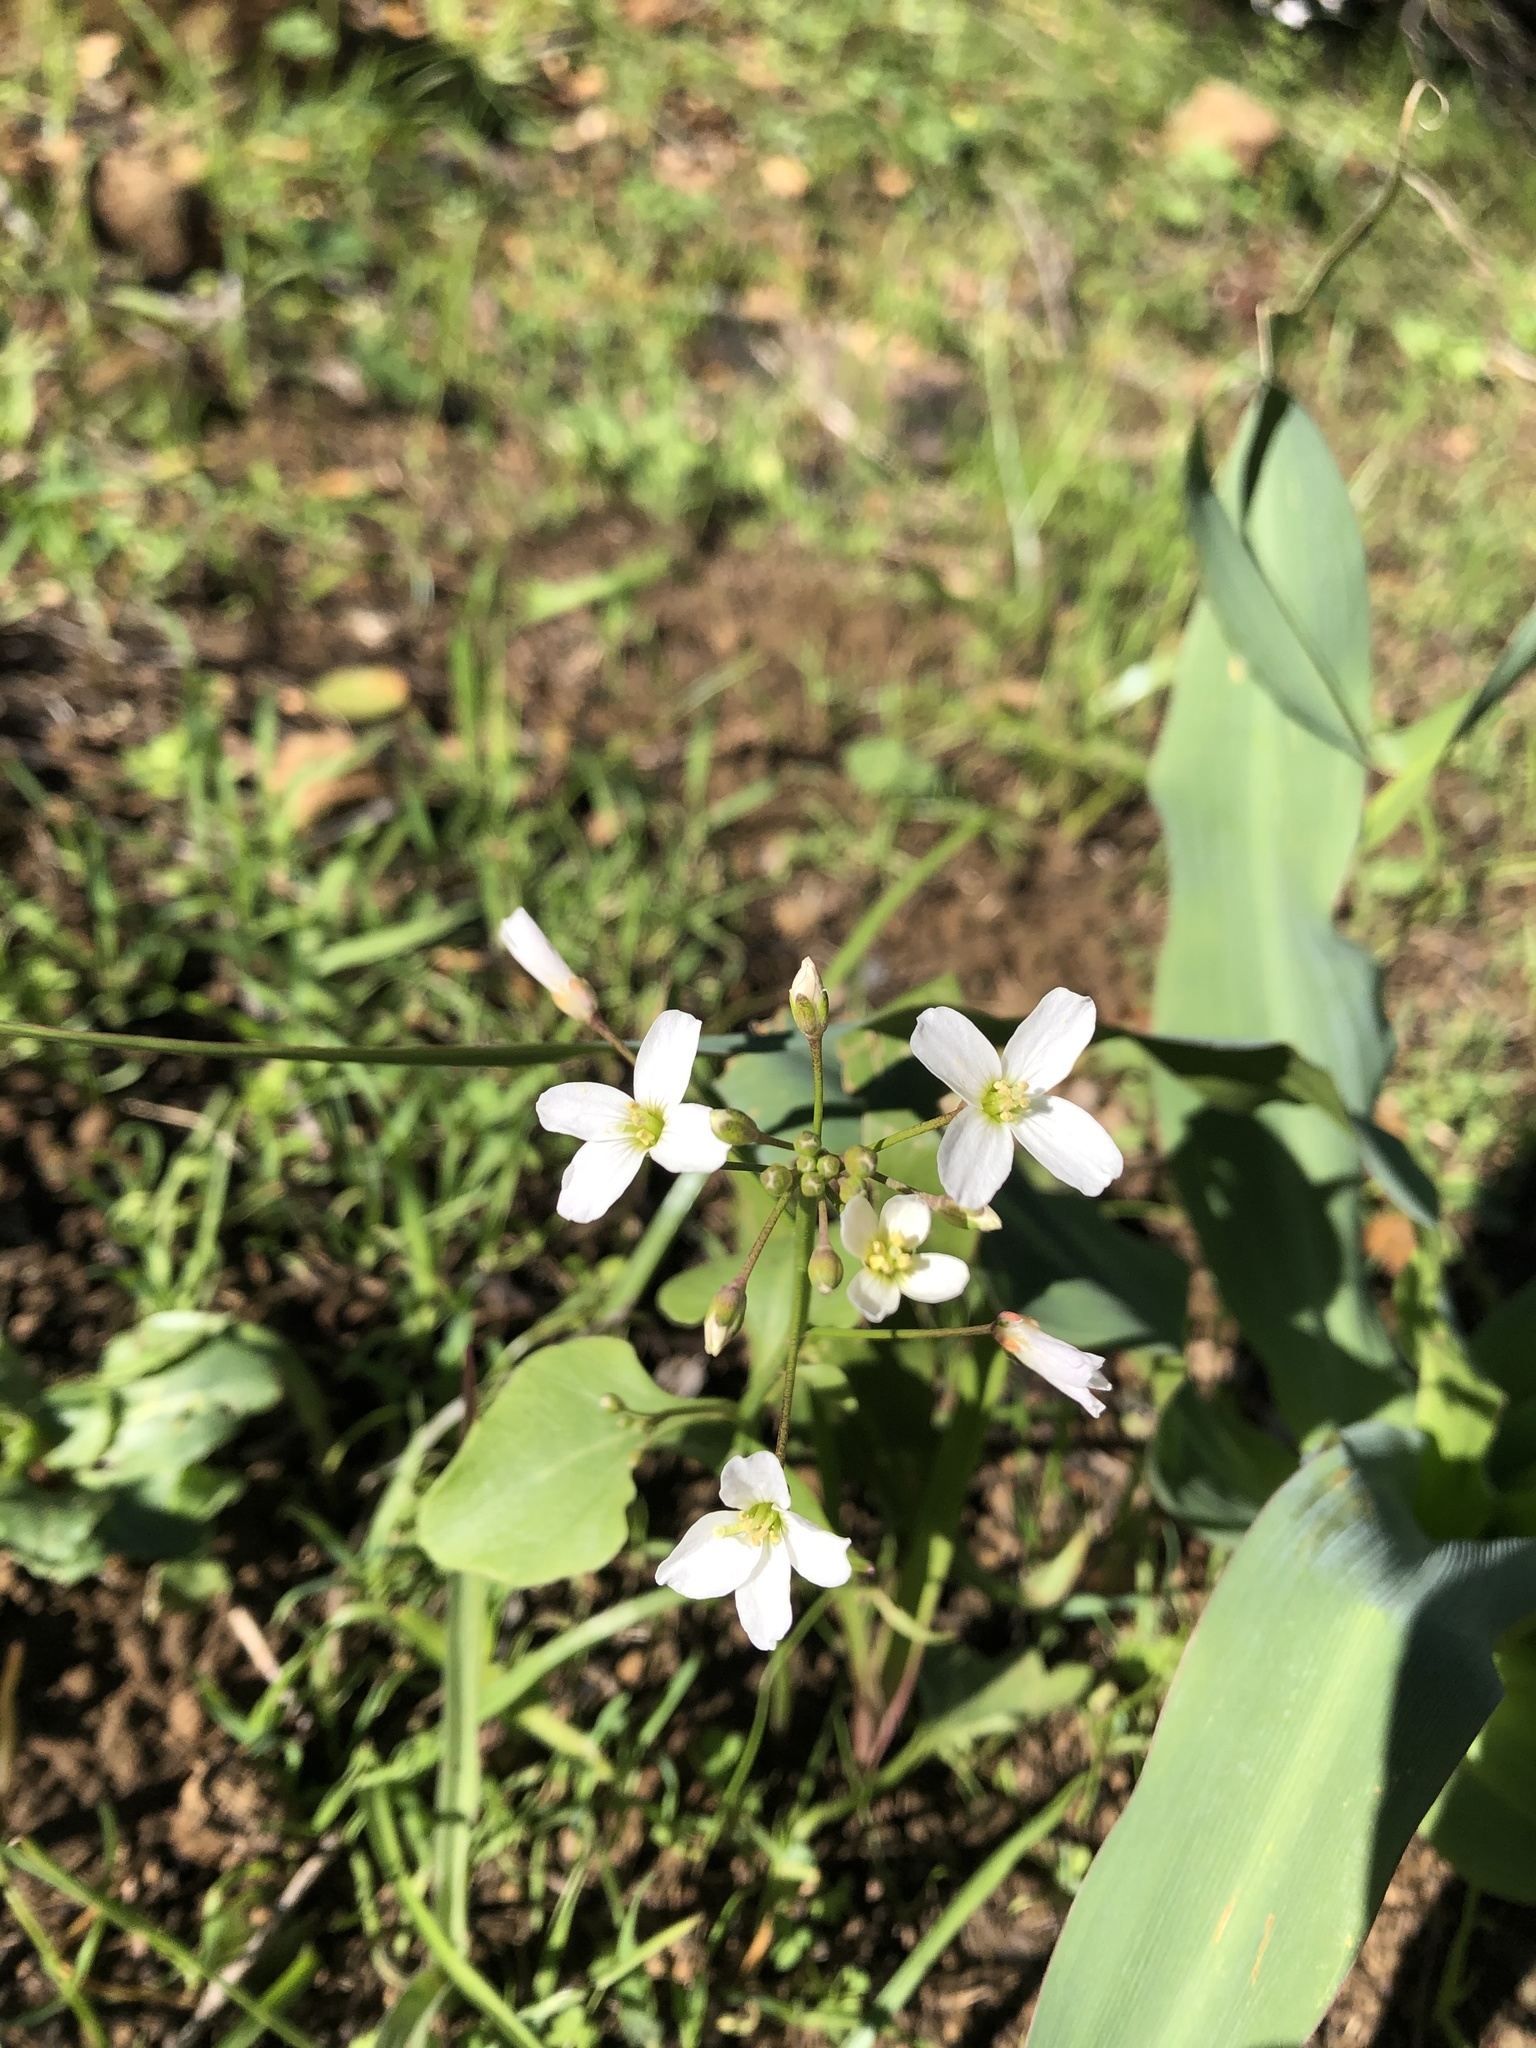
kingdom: Plantae
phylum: Tracheophyta
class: Magnoliopsida
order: Brassicales
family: Brassicaceae
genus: Cardamine
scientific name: Cardamine californica
